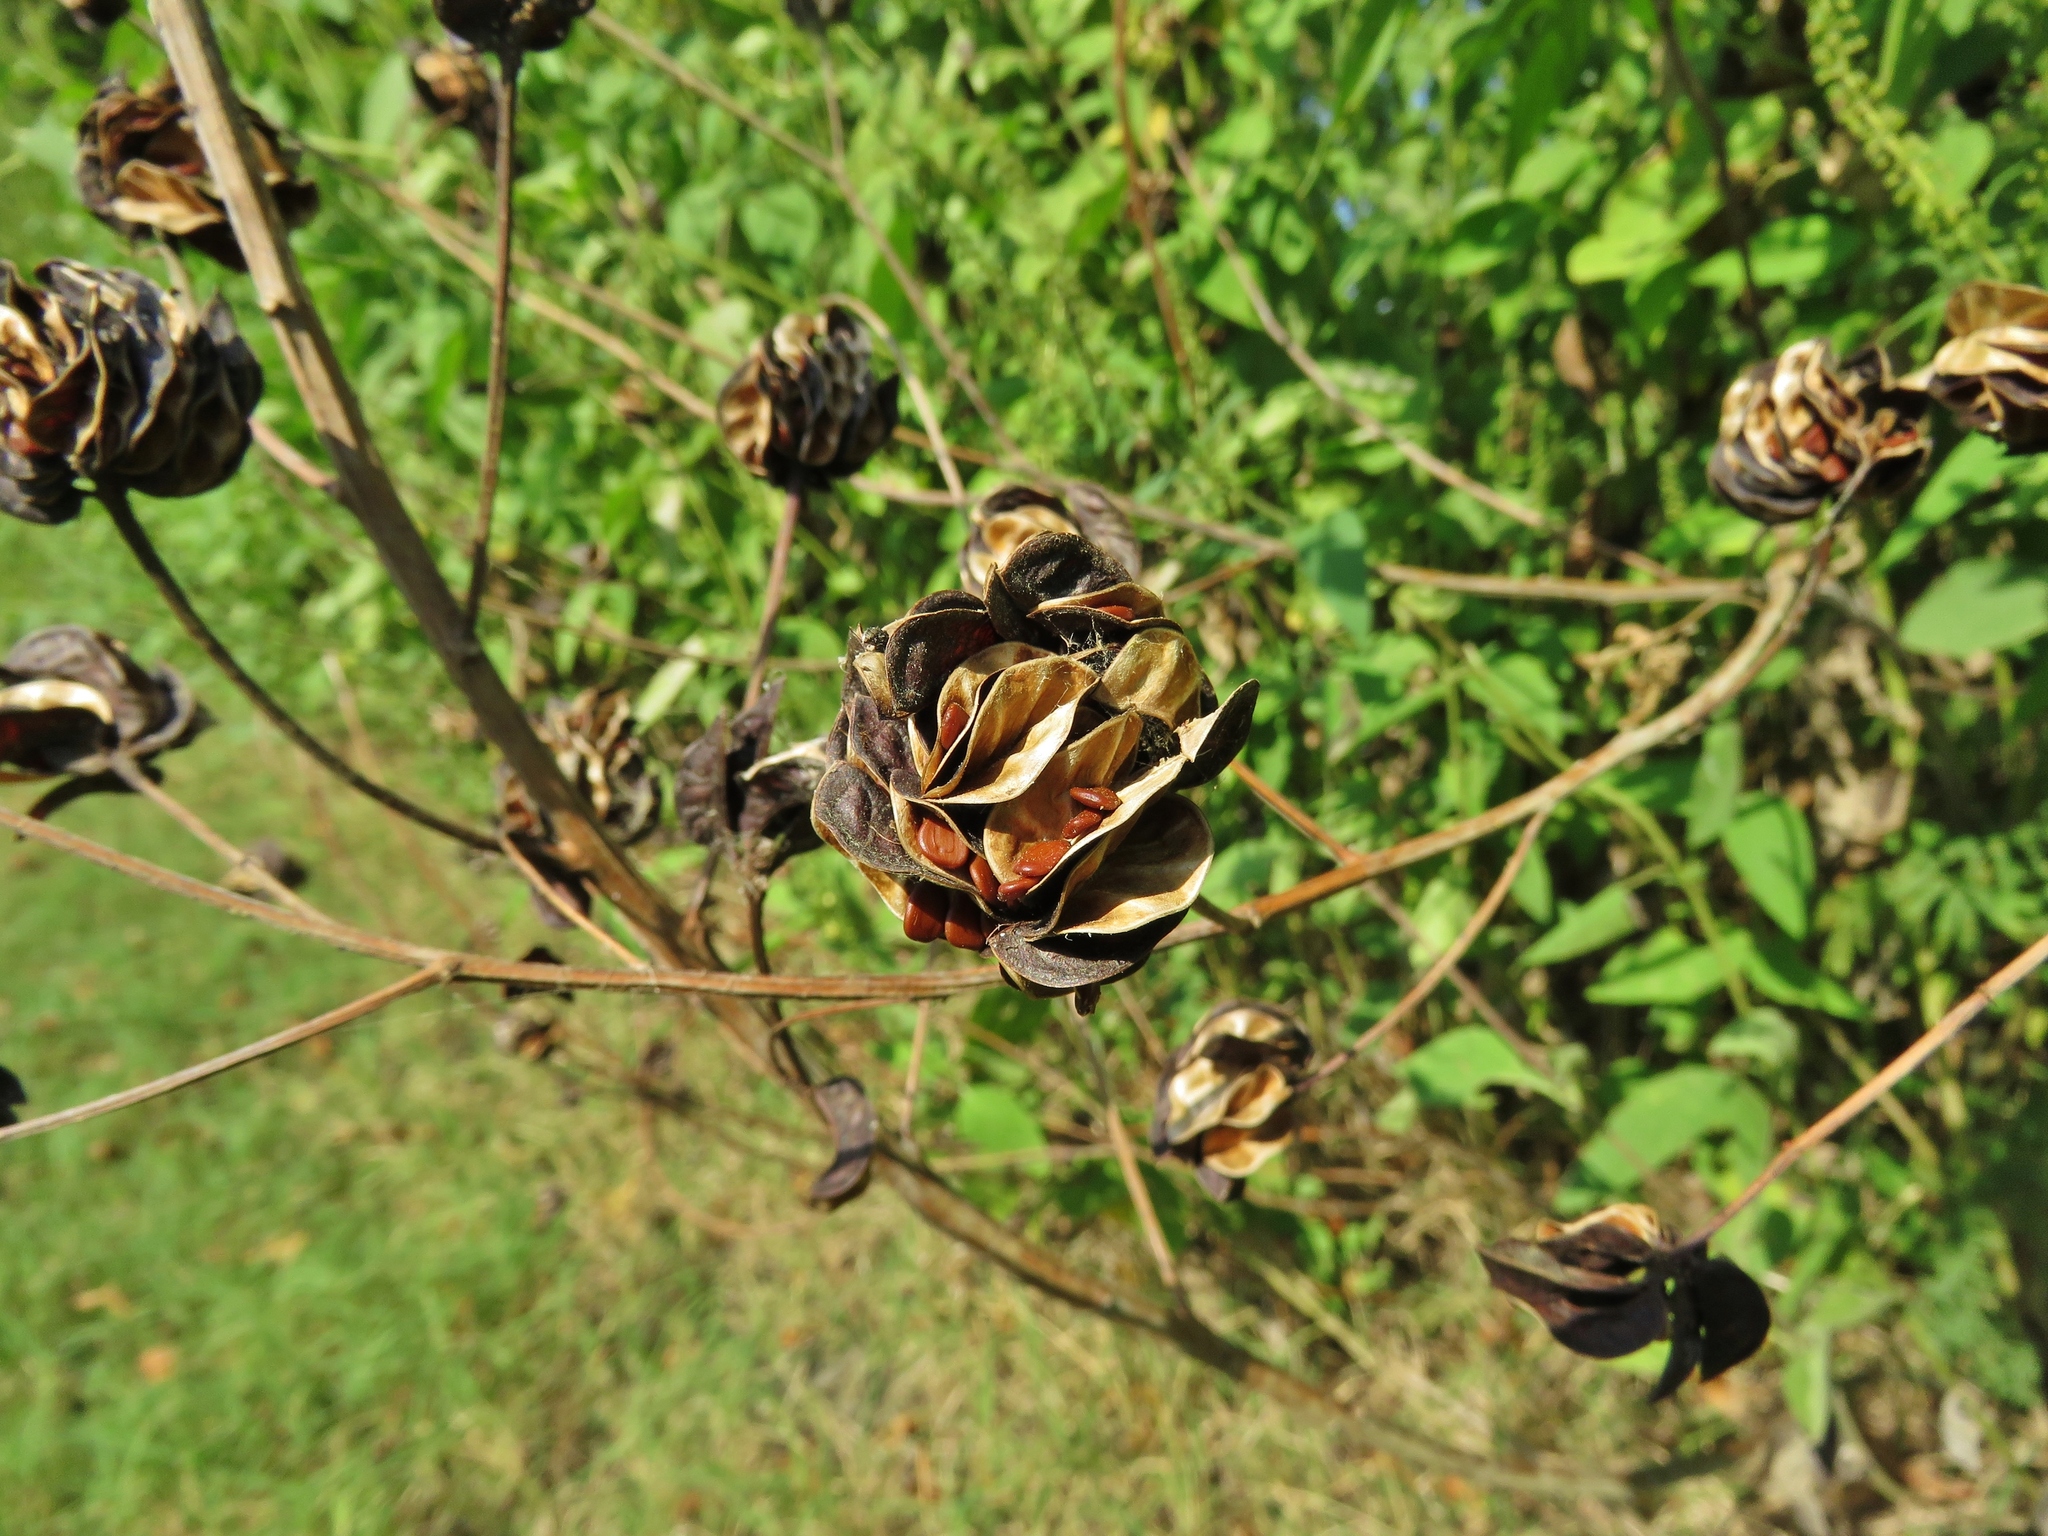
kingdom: Plantae
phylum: Tracheophyta
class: Magnoliopsida
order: Fabales
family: Fabaceae
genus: Desmanthus
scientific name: Desmanthus illinoensis
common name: Illinois bundle-flower
